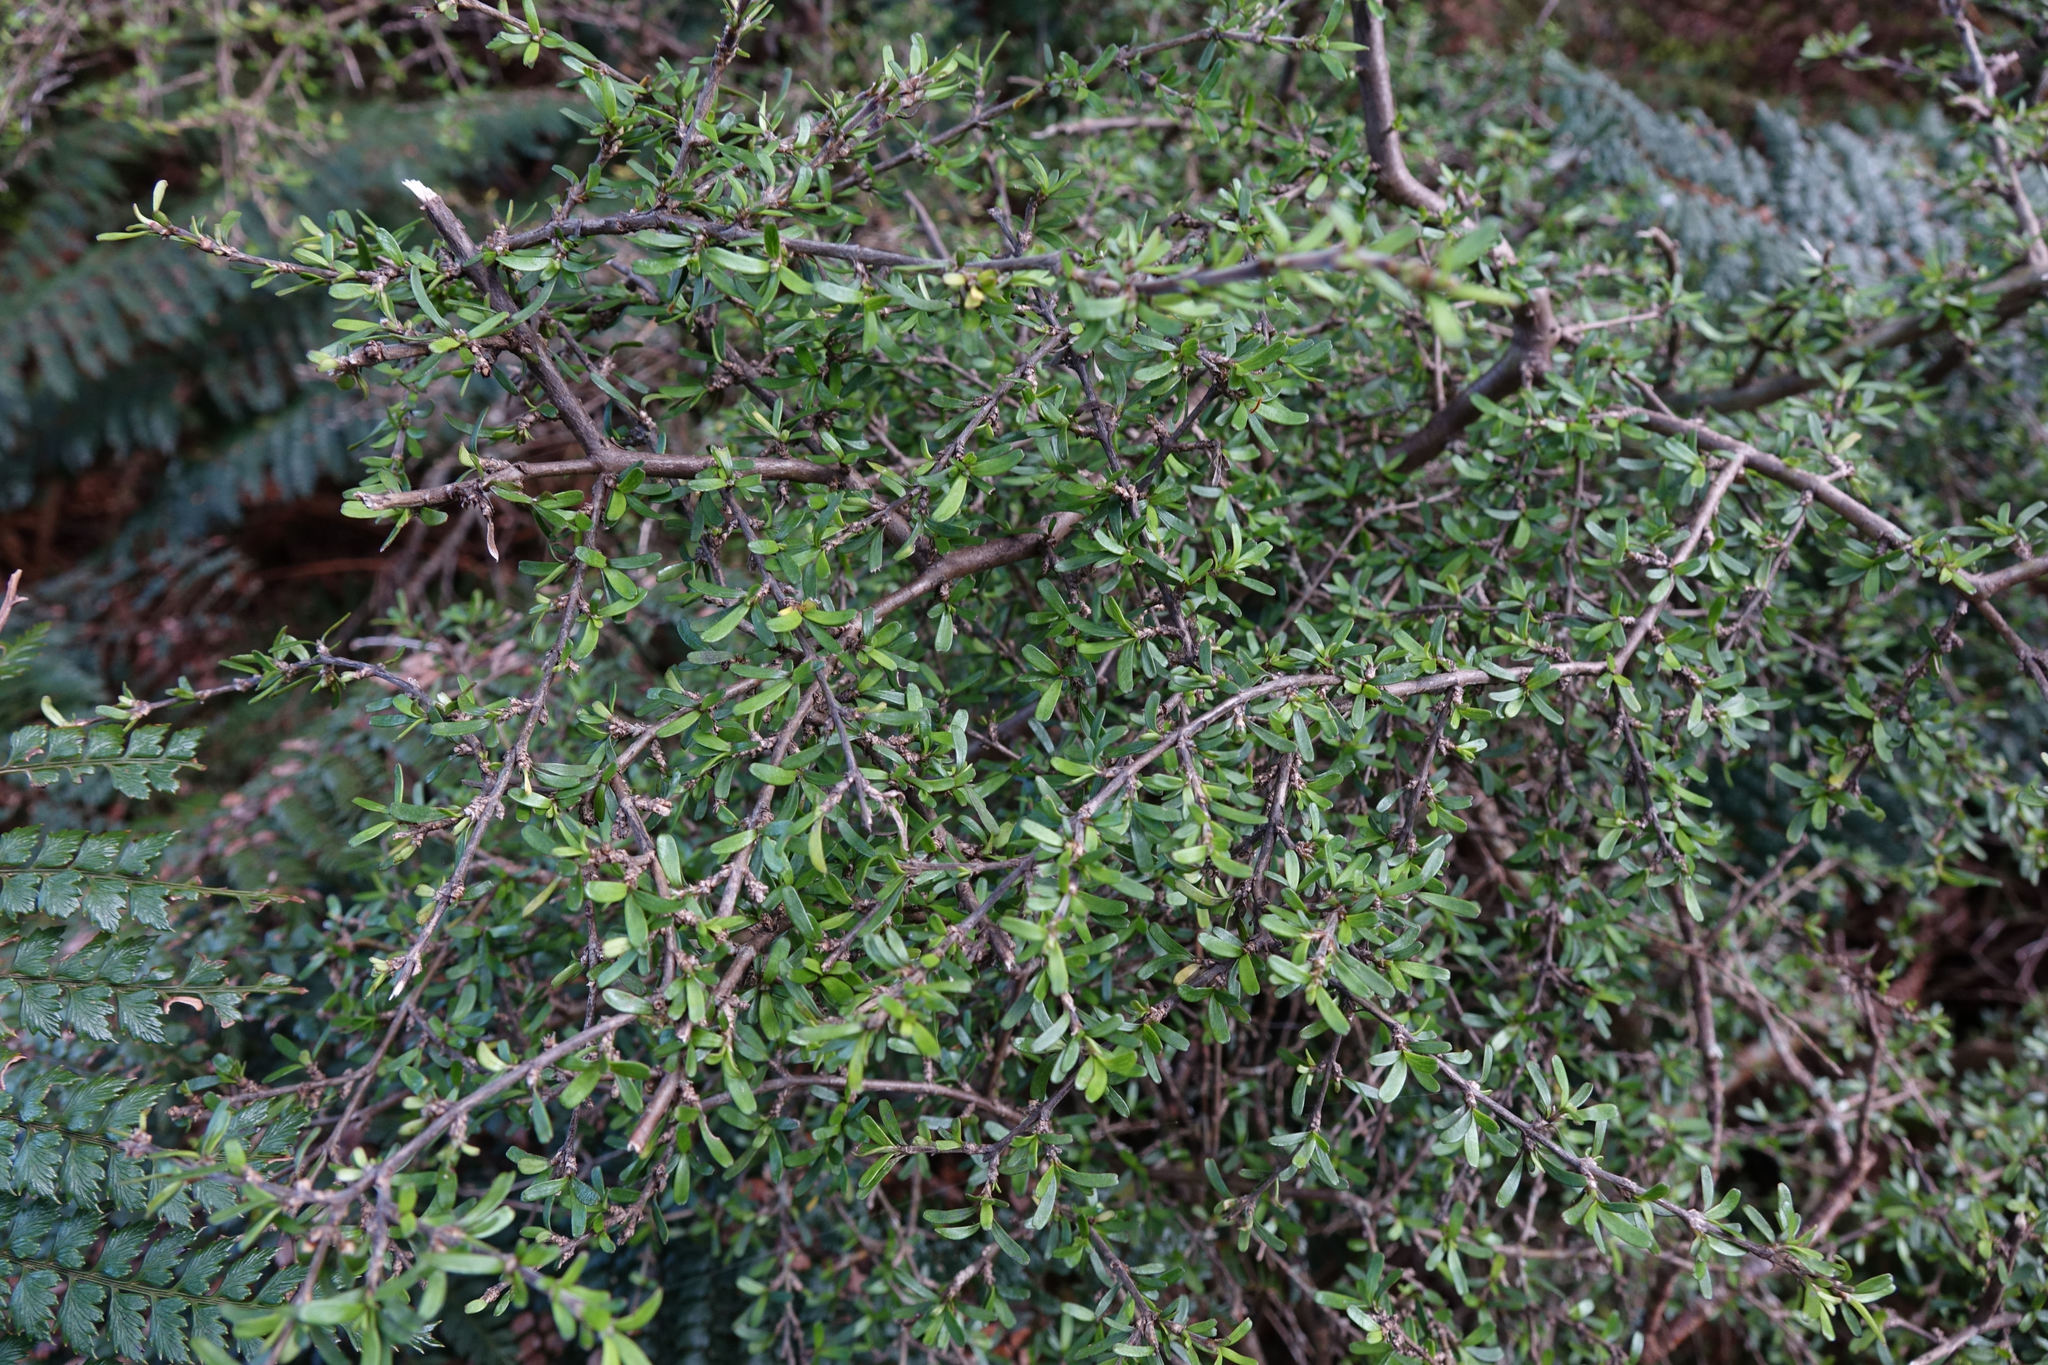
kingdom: Plantae
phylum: Tracheophyta
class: Magnoliopsida
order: Gentianales
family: Rubiaceae
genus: Coprosma
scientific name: Coprosma cuneata
